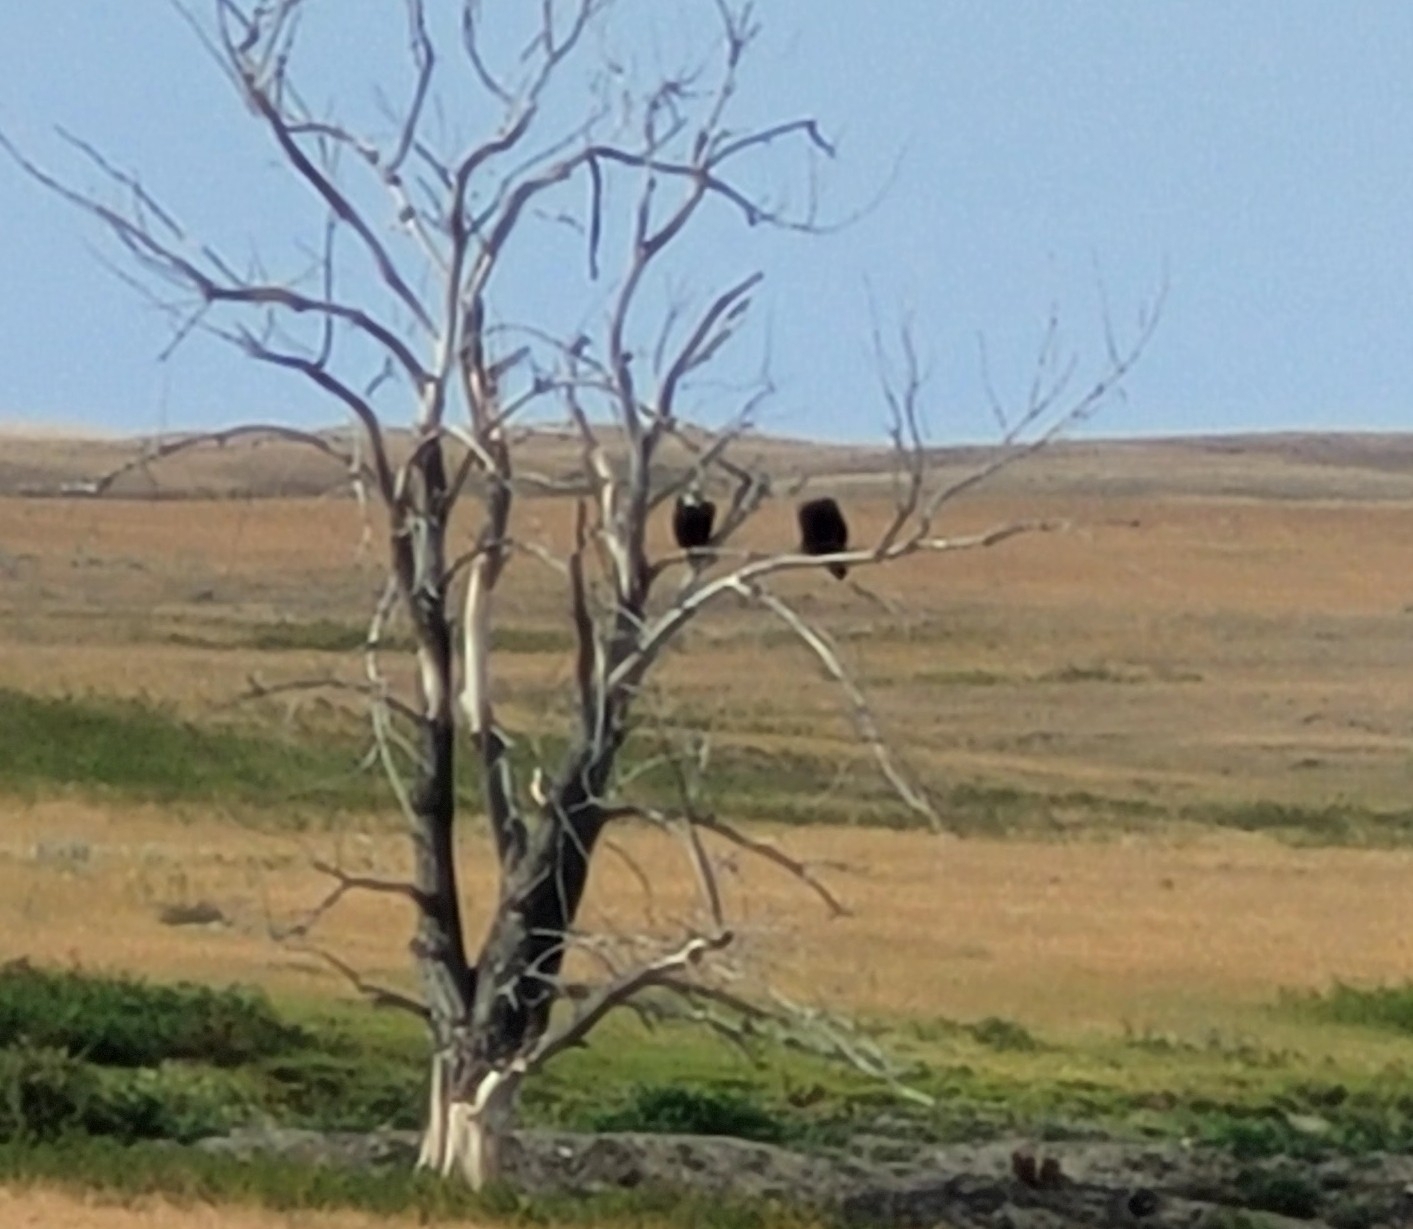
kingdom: Animalia
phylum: Chordata
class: Aves
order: Accipitriformes
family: Accipitridae
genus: Haliaeetus
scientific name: Haliaeetus leucocephalus
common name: Bald eagle
